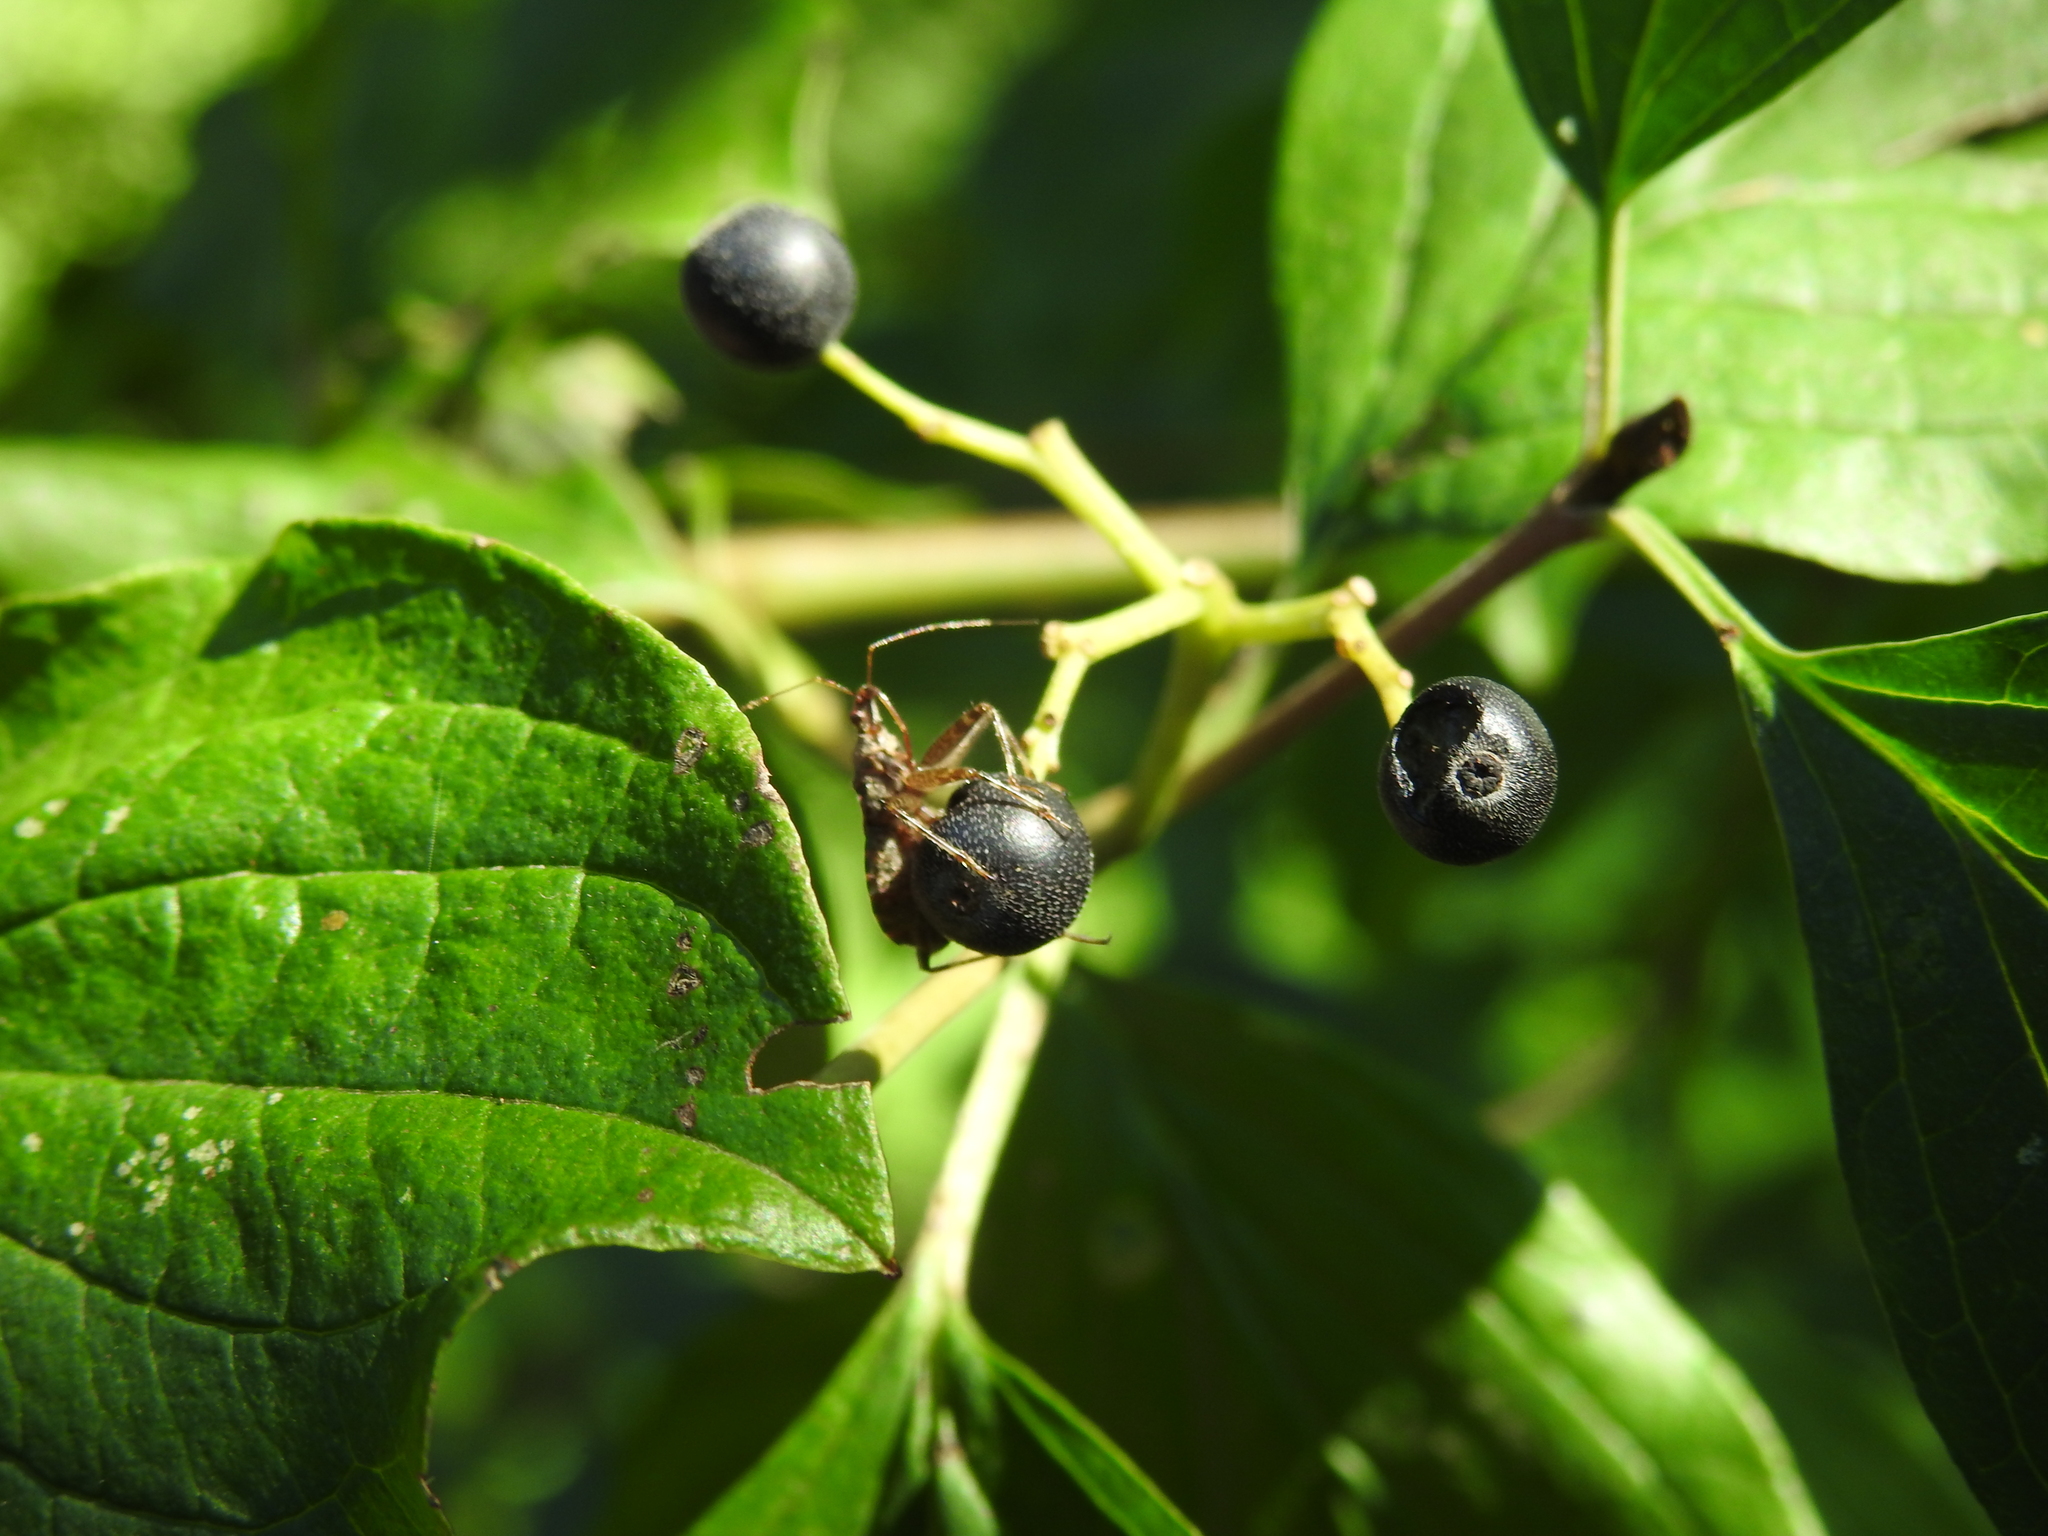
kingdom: Animalia
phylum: Arthropoda
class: Insecta
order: Hemiptera
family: Nabidae
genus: Himacerus
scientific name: Himacerus apterus
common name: Tree damsel bug
